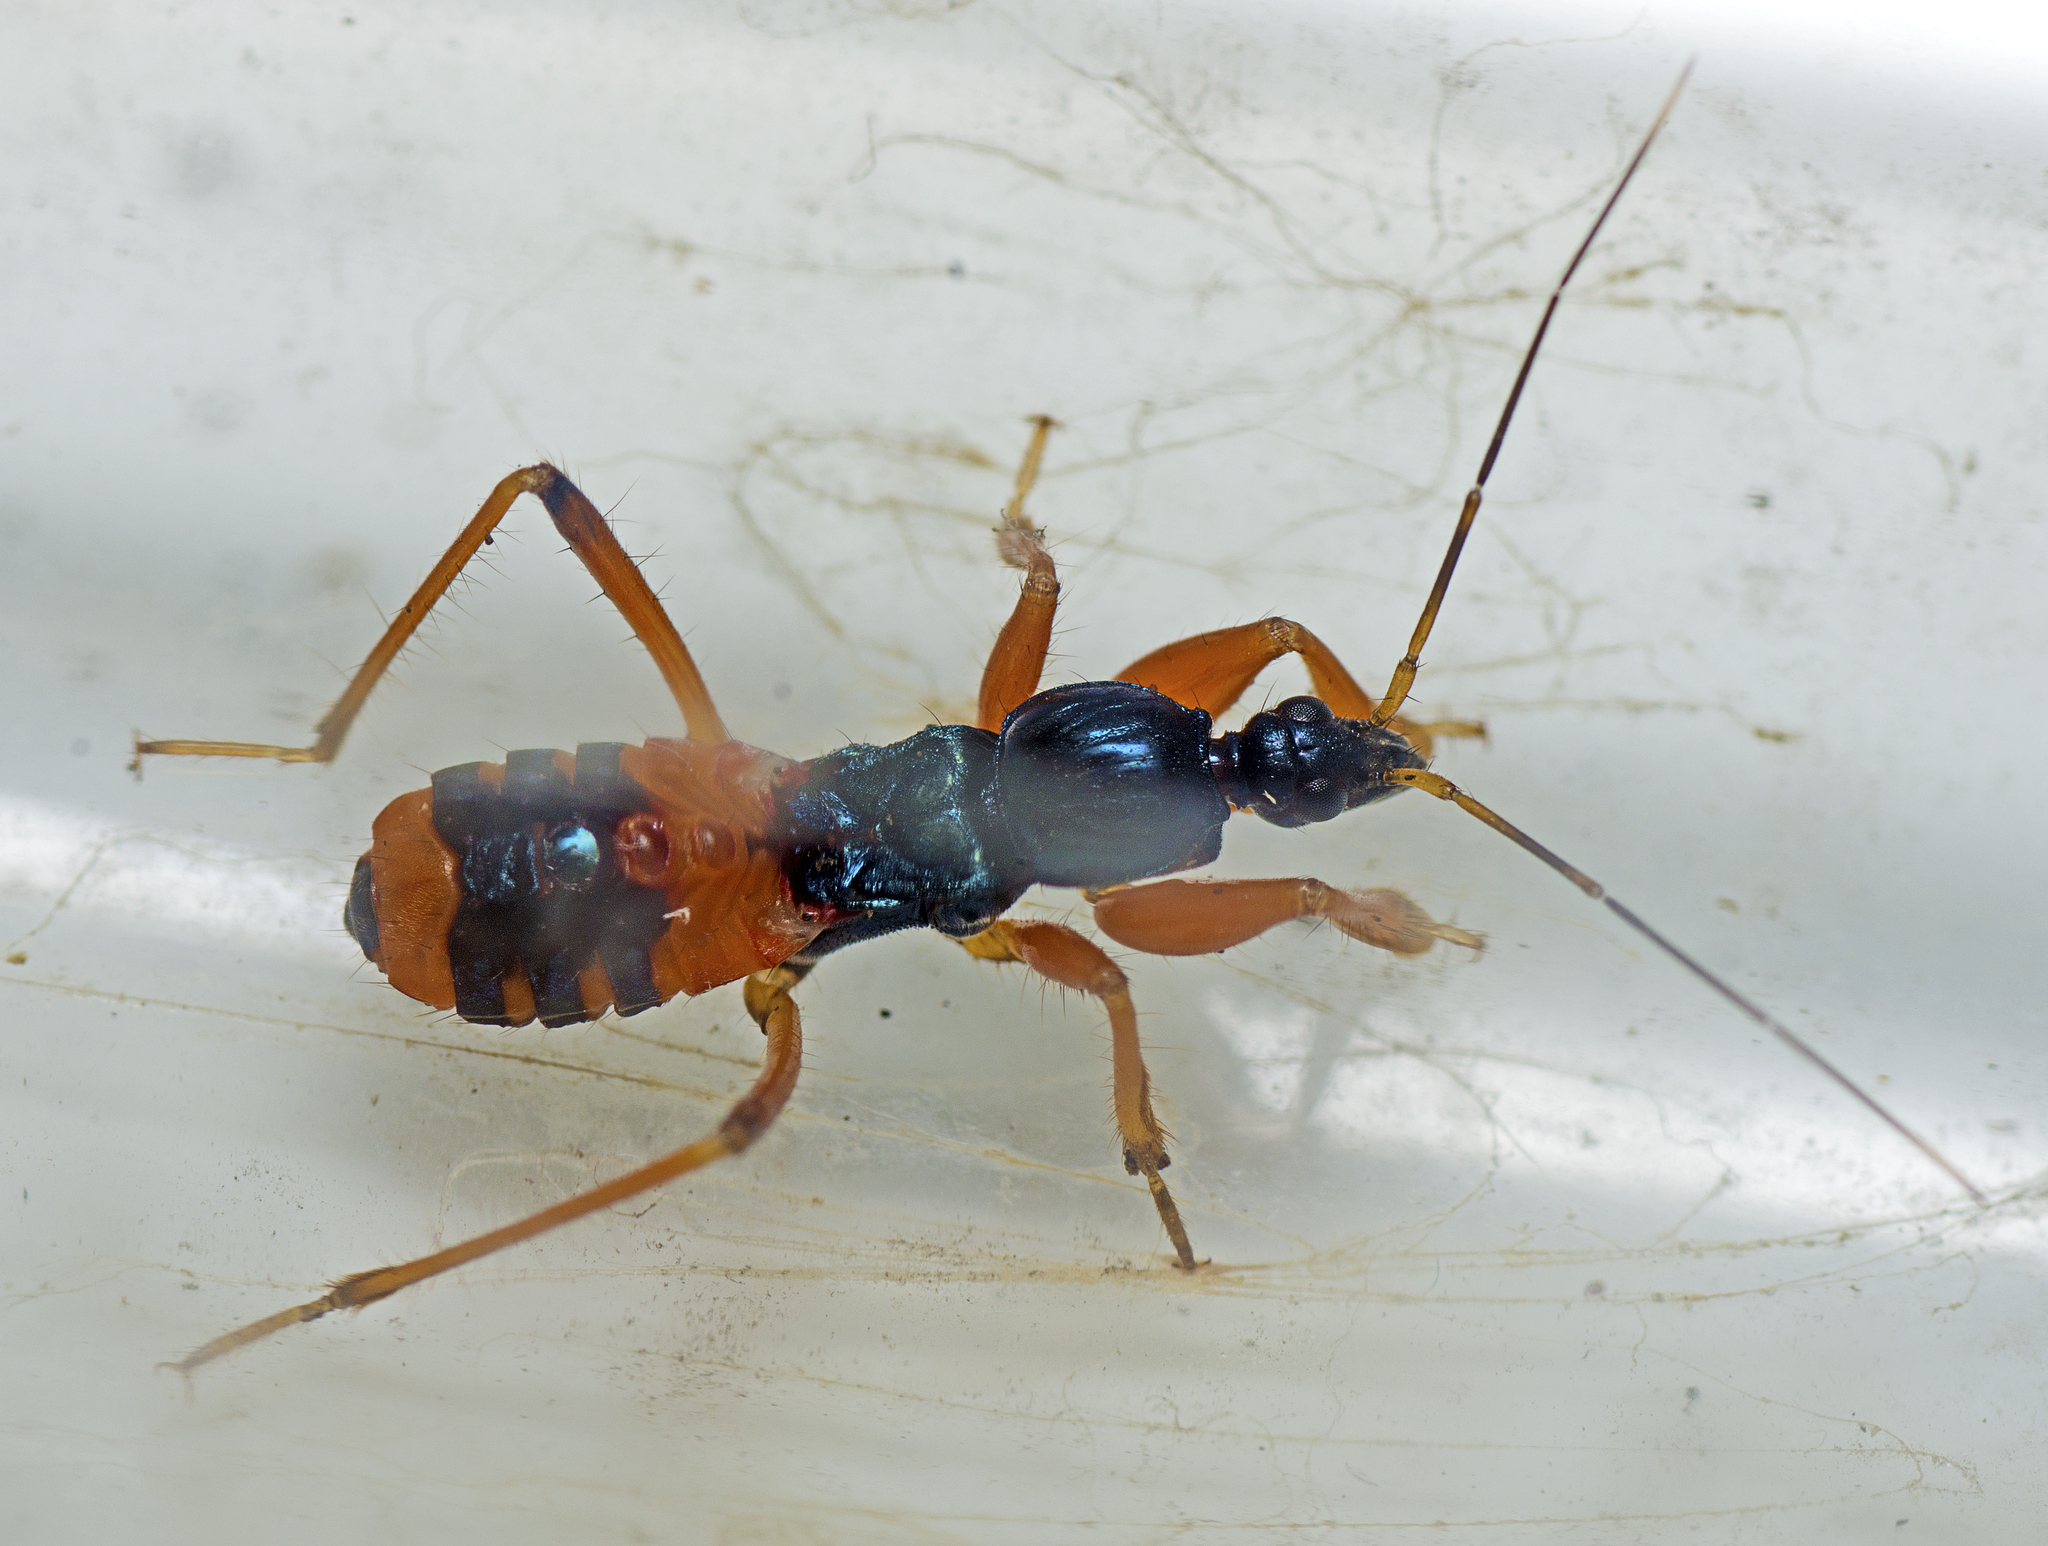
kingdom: Animalia
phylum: Arthropoda
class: Insecta
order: Hemiptera
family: Reduviidae
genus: Ectomocoris
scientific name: Ectomocoris ornatus
